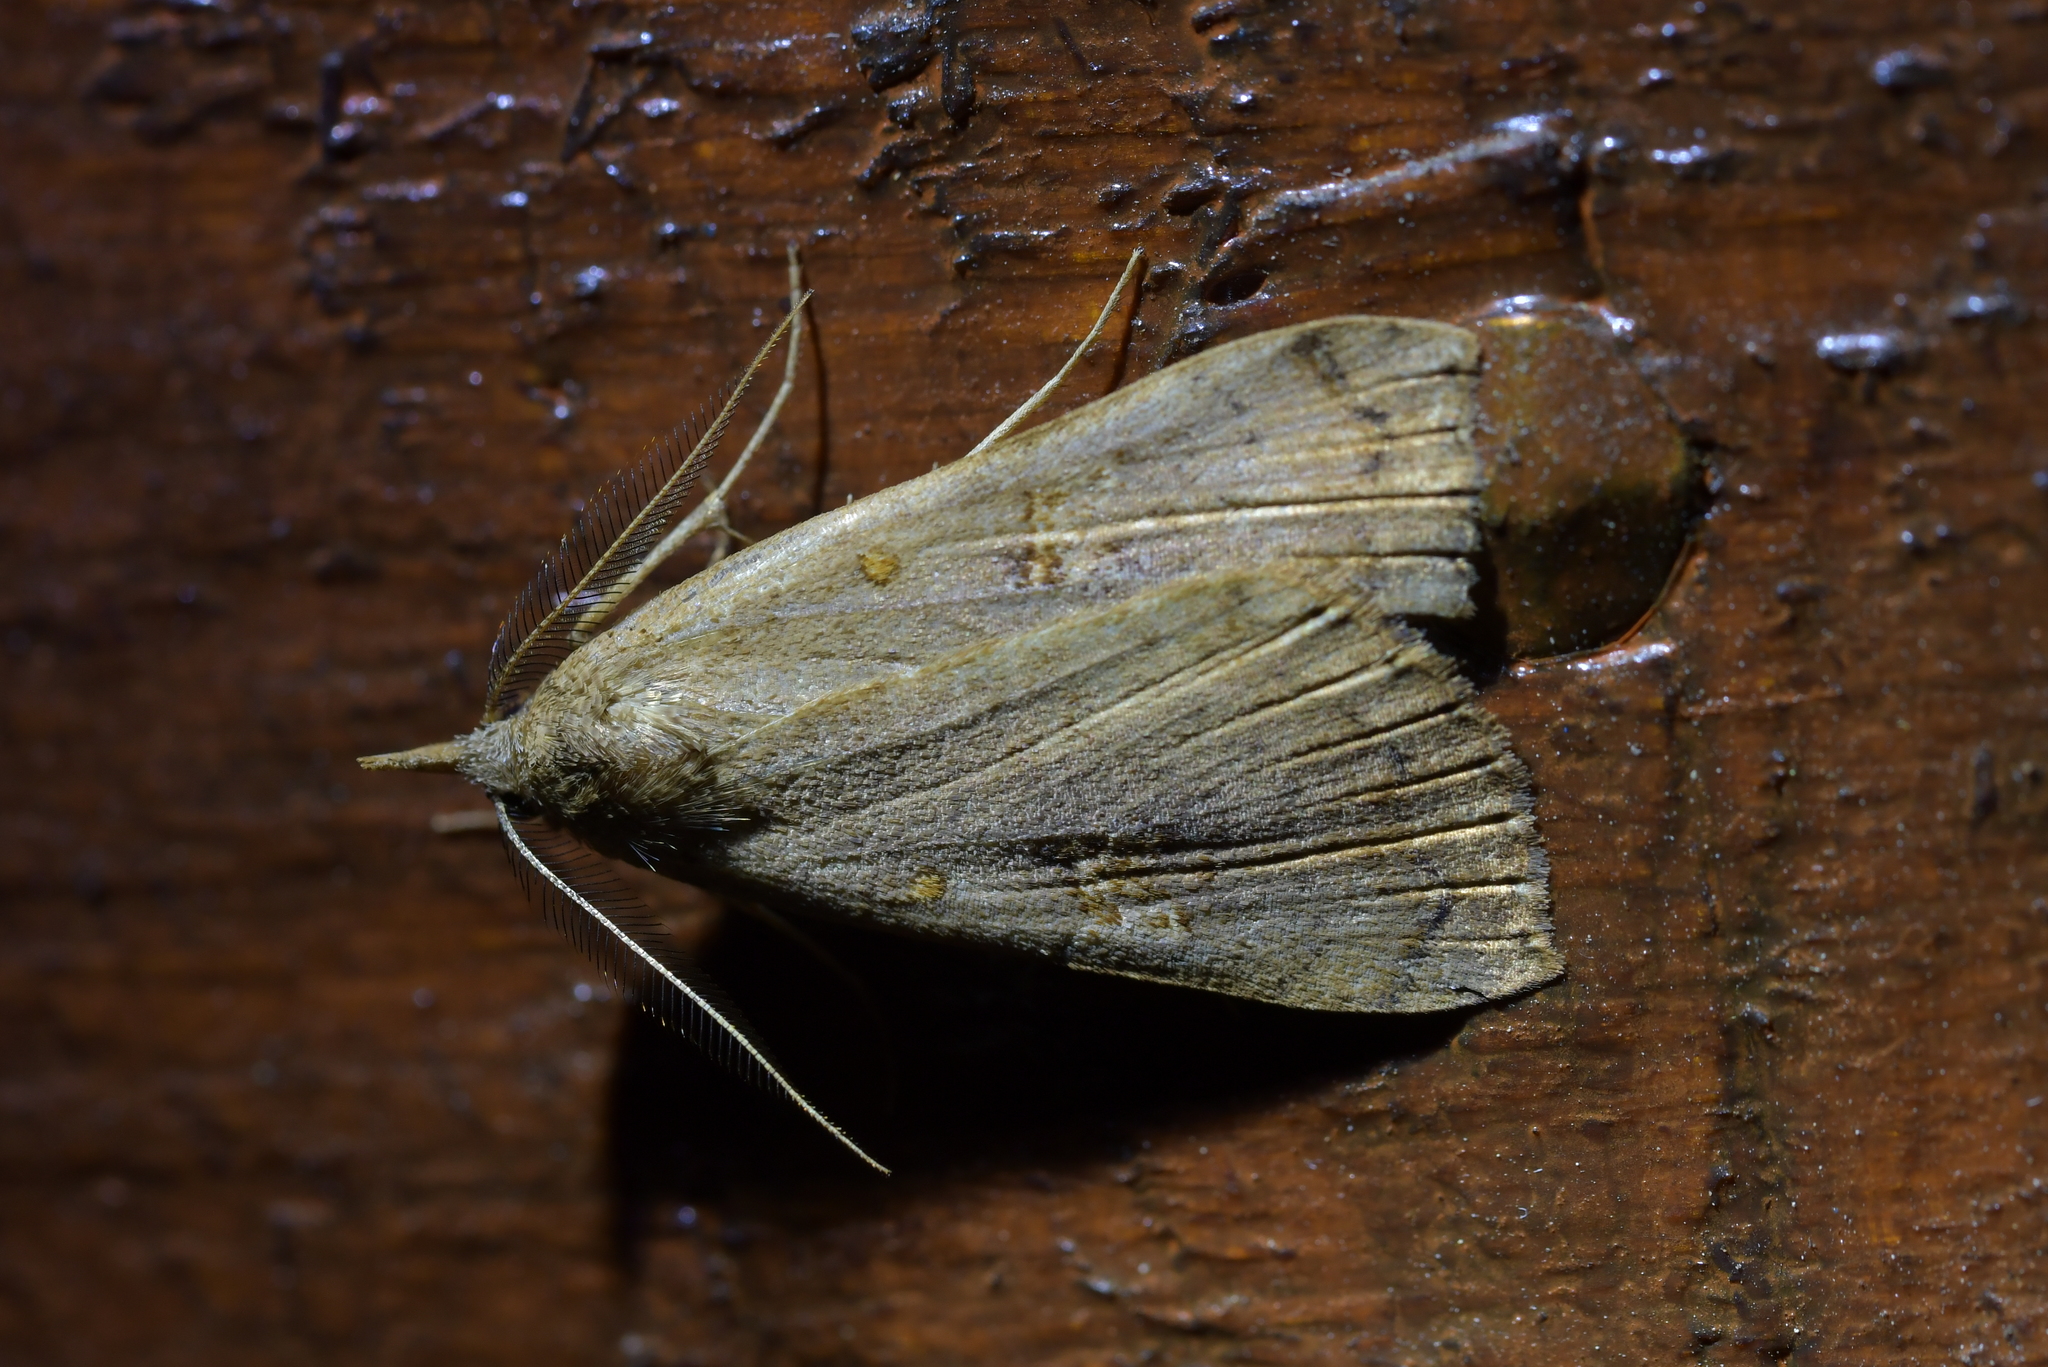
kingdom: Animalia
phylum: Arthropoda
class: Insecta
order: Lepidoptera
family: Erebidae
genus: Rhapsa
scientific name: Rhapsa scotosialis
